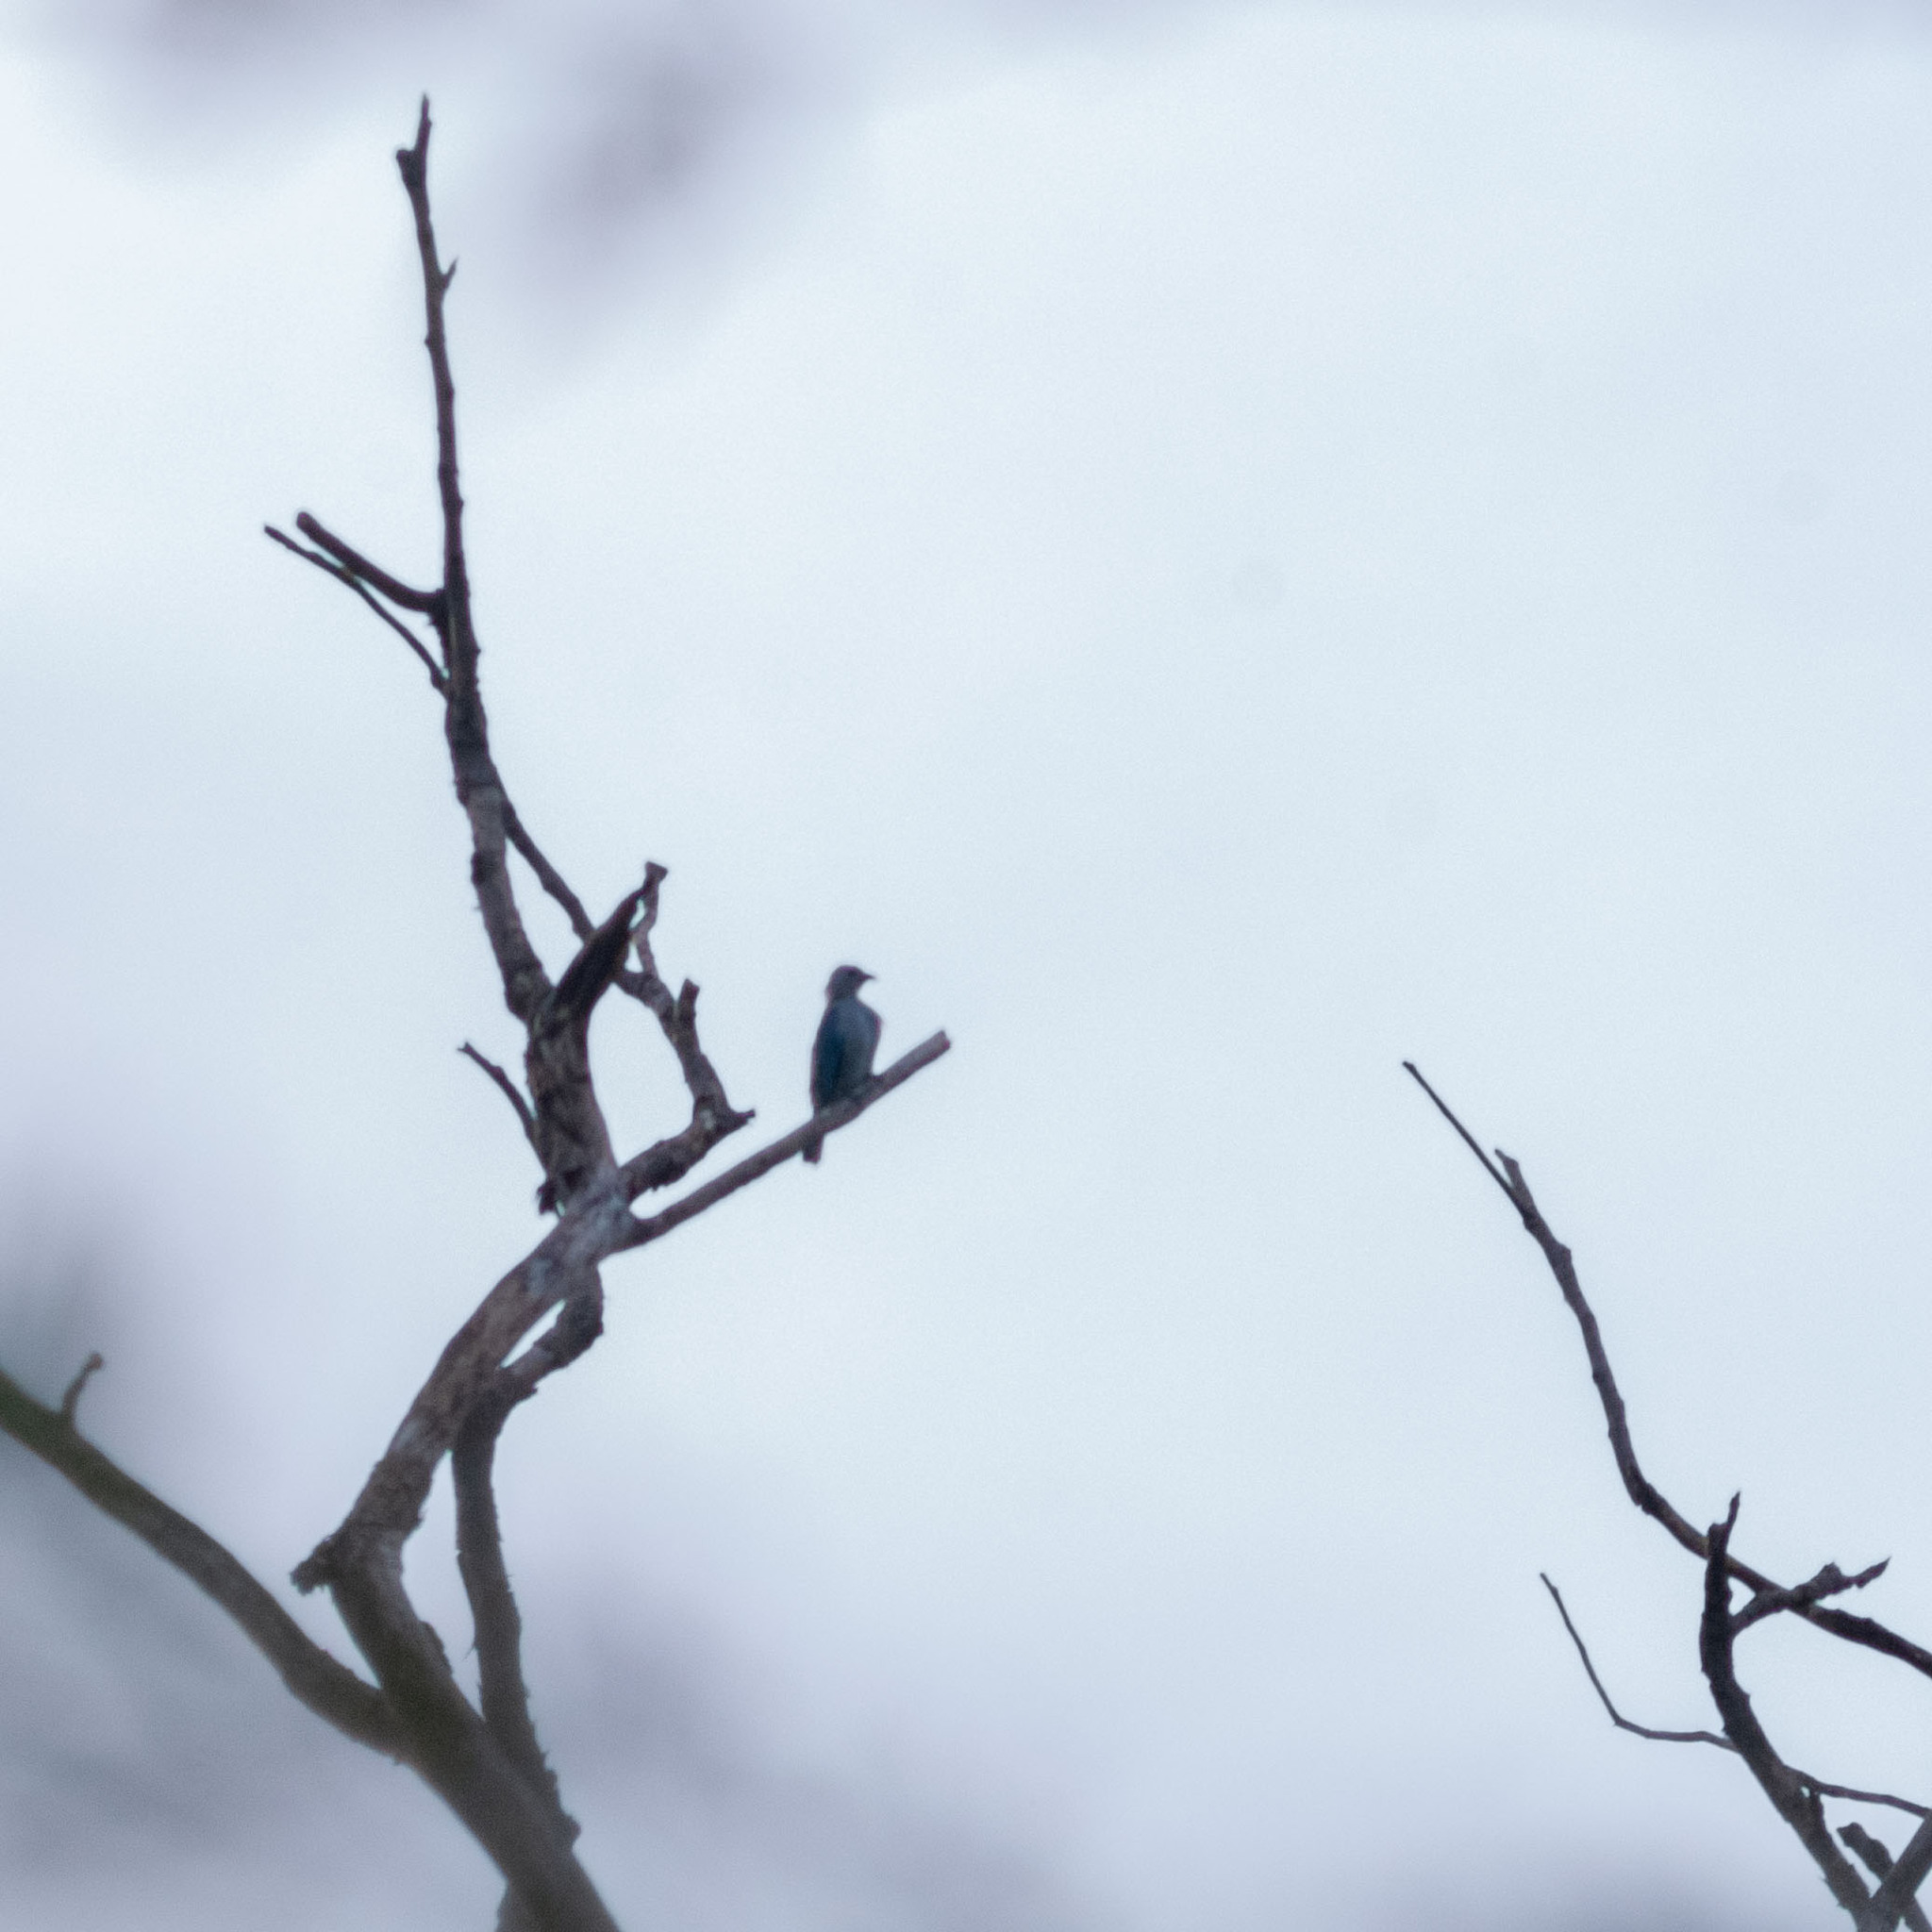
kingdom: Animalia
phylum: Chordata
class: Aves
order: Passeriformes
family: Thraupidae
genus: Thraupis
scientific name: Thraupis episcopus
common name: Blue-grey tanager
